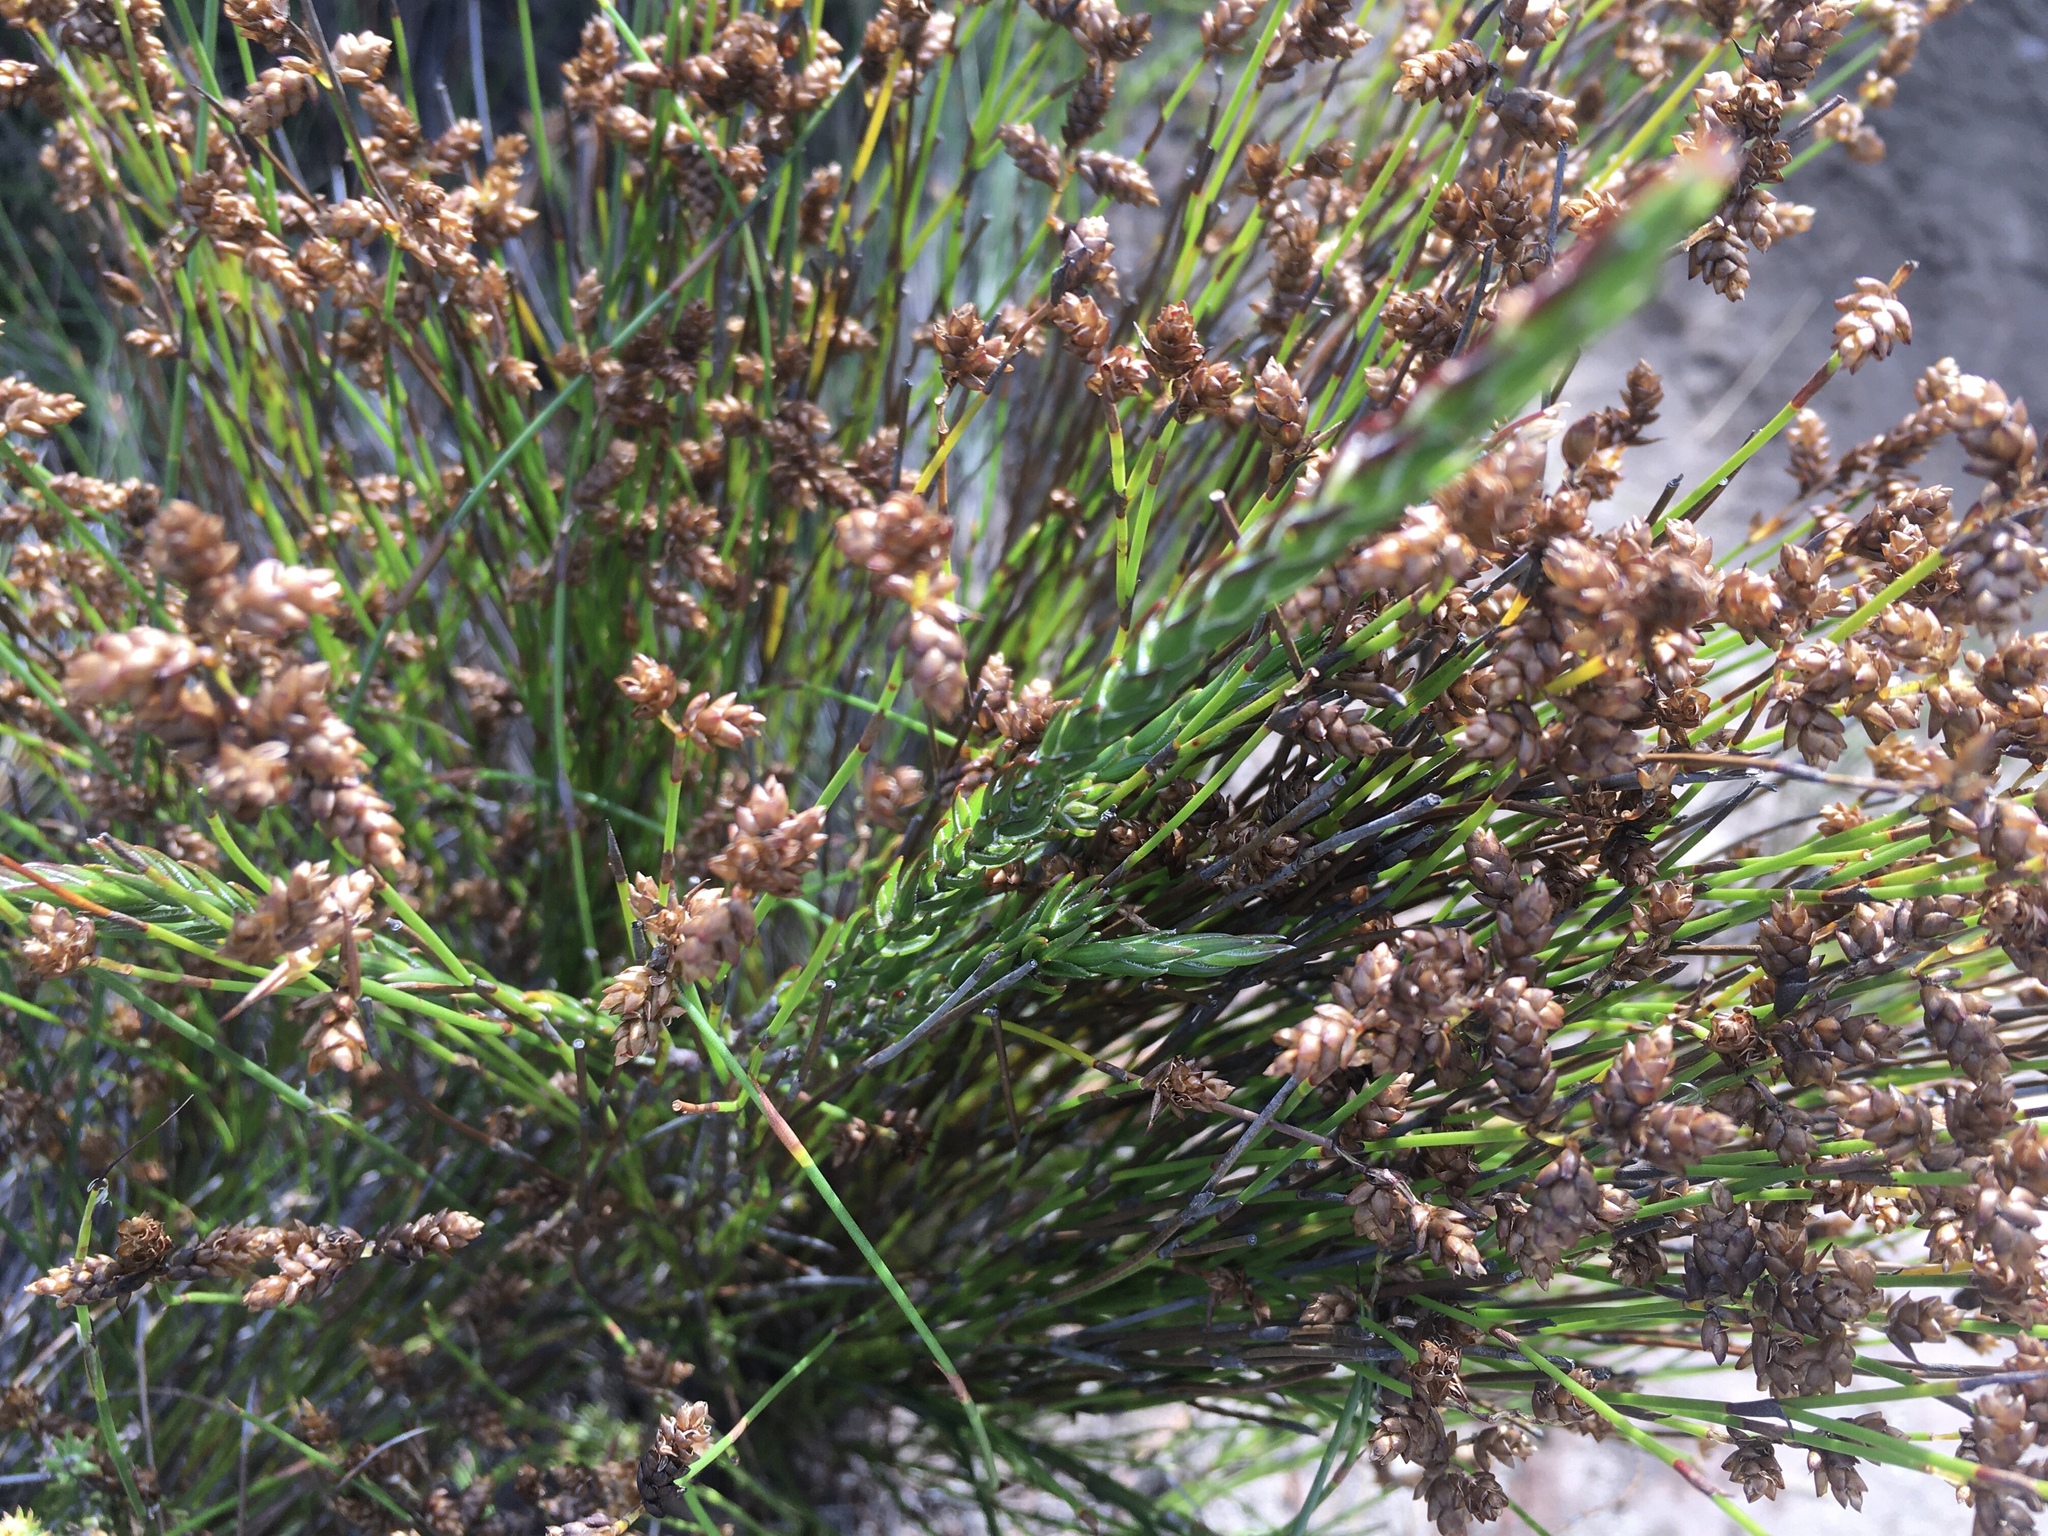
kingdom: Plantae
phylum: Tracheophyta
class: Liliopsida
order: Poales
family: Restionaceae
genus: Mastersiella
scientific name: Mastersiella digitata
